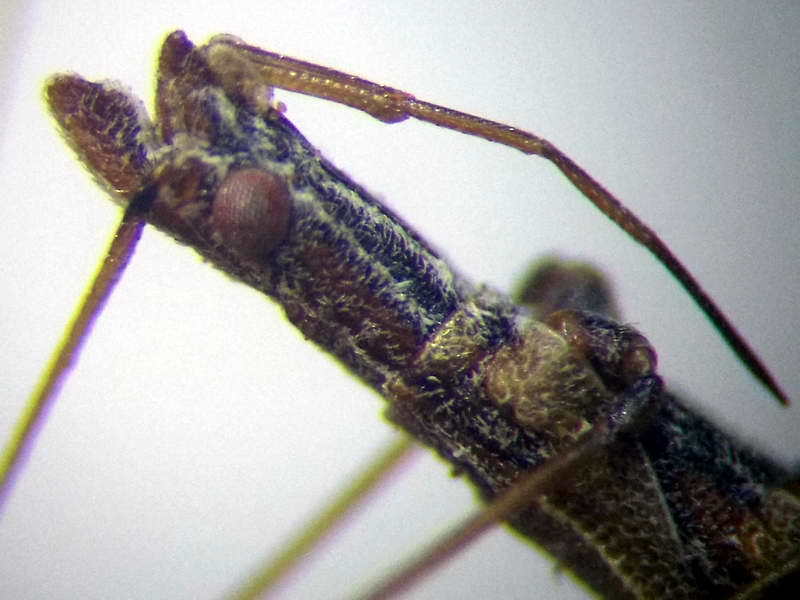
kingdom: Animalia
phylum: Arthropoda
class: Insecta
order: Hemiptera
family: Berytidae
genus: Neides
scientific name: Neides tipularius
